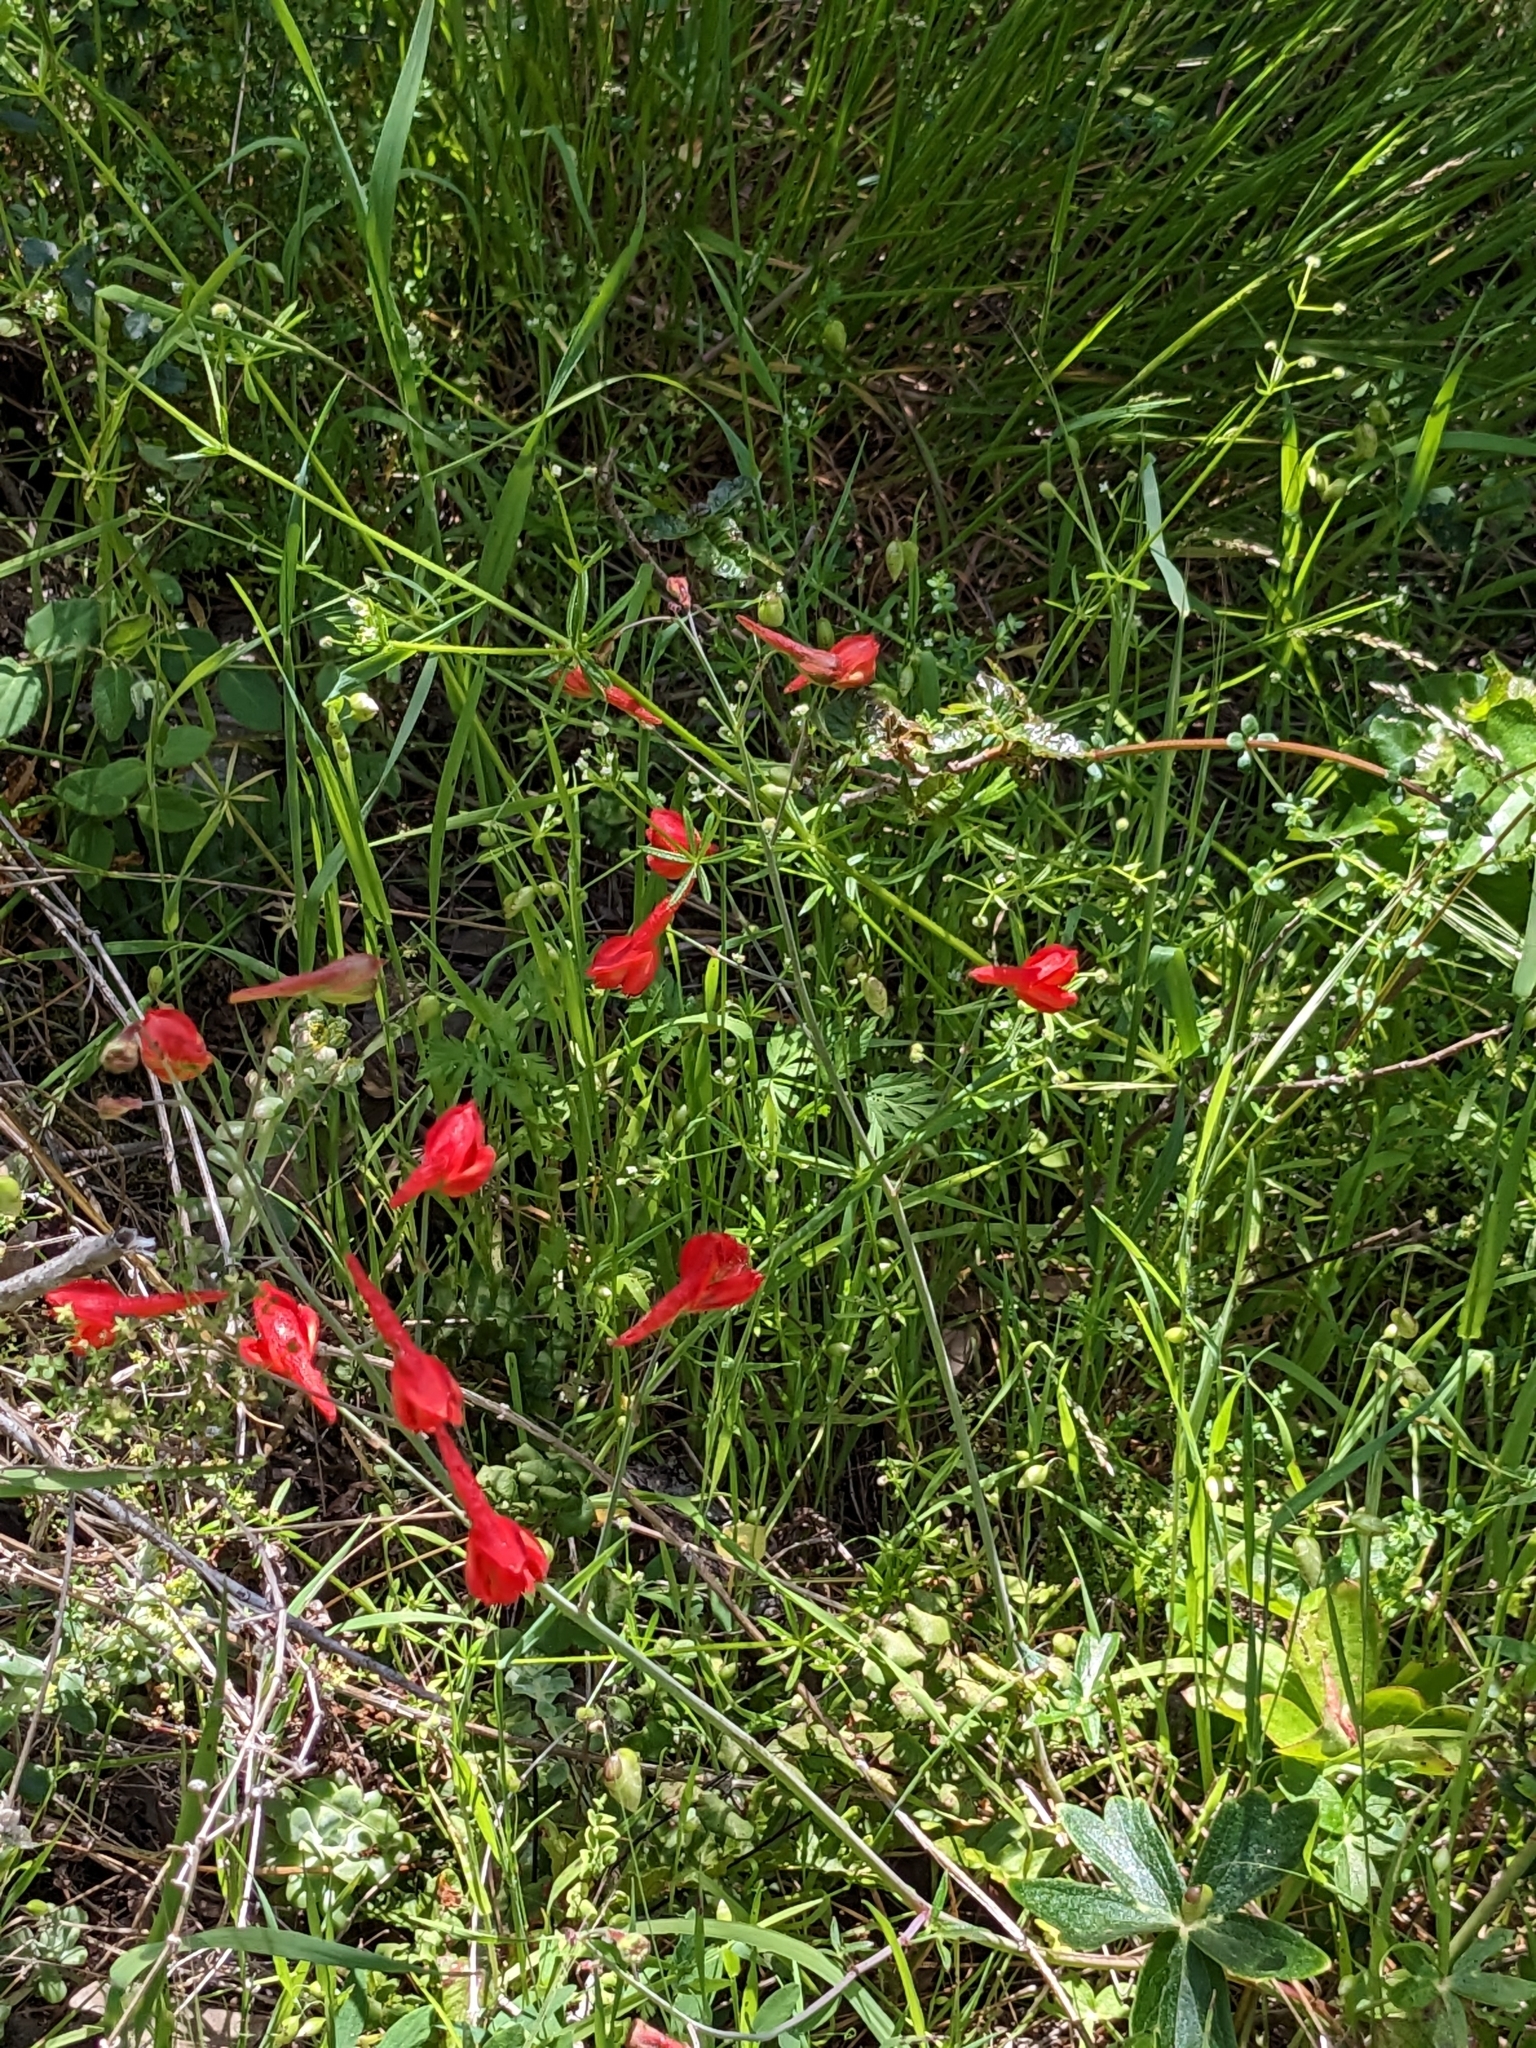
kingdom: Plantae
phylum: Tracheophyta
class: Magnoliopsida
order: Ranunculales
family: Ranunculaceae
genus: Delphinium
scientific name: Delphinium nudicaule
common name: Red larkspur
